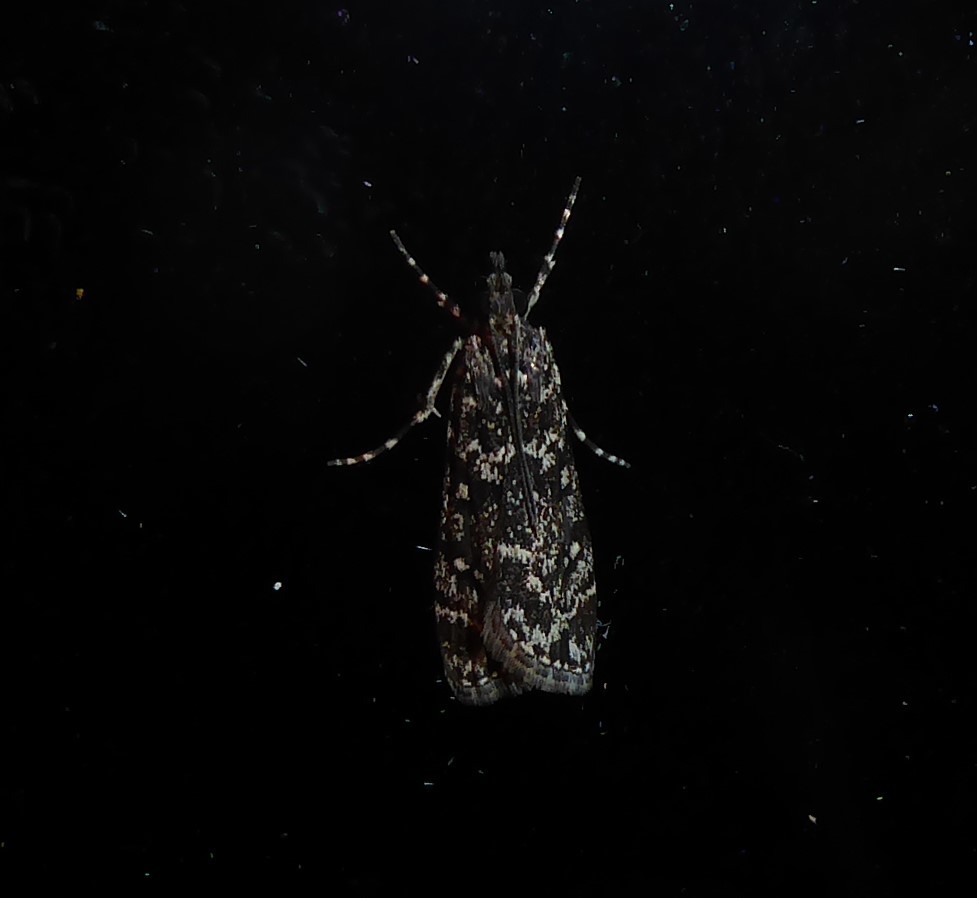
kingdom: Animalia
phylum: Arthropoda
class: Insecta
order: Lepidoptera
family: Crambidae
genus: Eudonia
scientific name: Eudonia philerga
